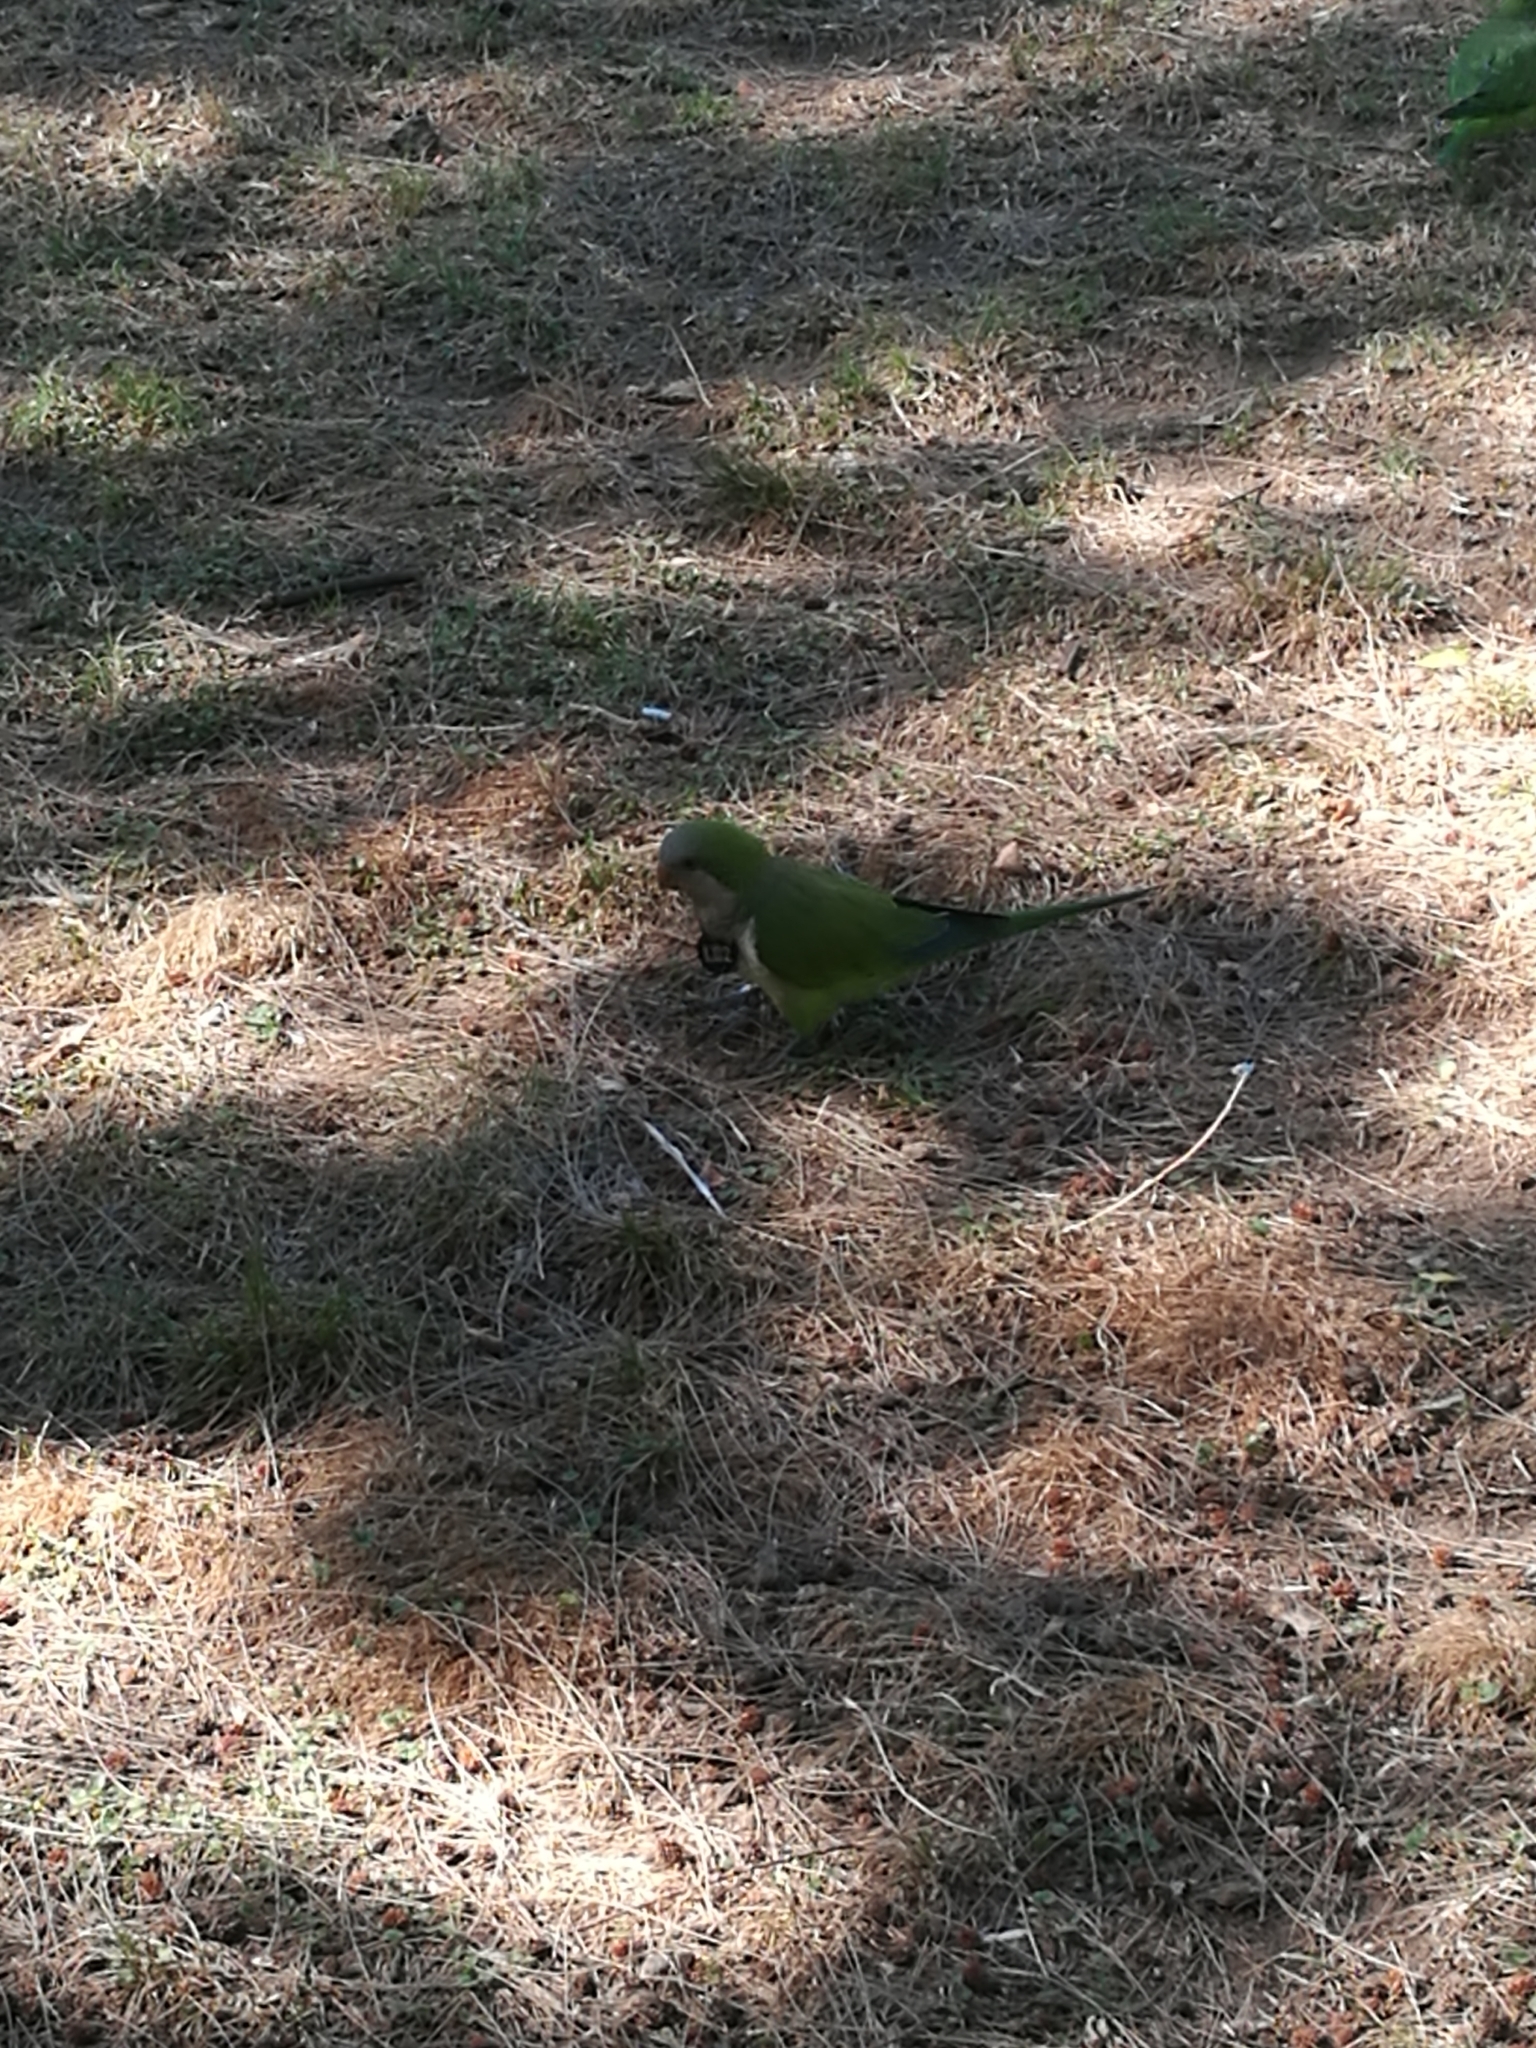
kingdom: Animalia
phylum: Chordata
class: Aves
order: Psittaciformes
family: Psittacidae
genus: Myiopsitta
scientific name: Myiopsitta monachus
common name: Monk parakeet
